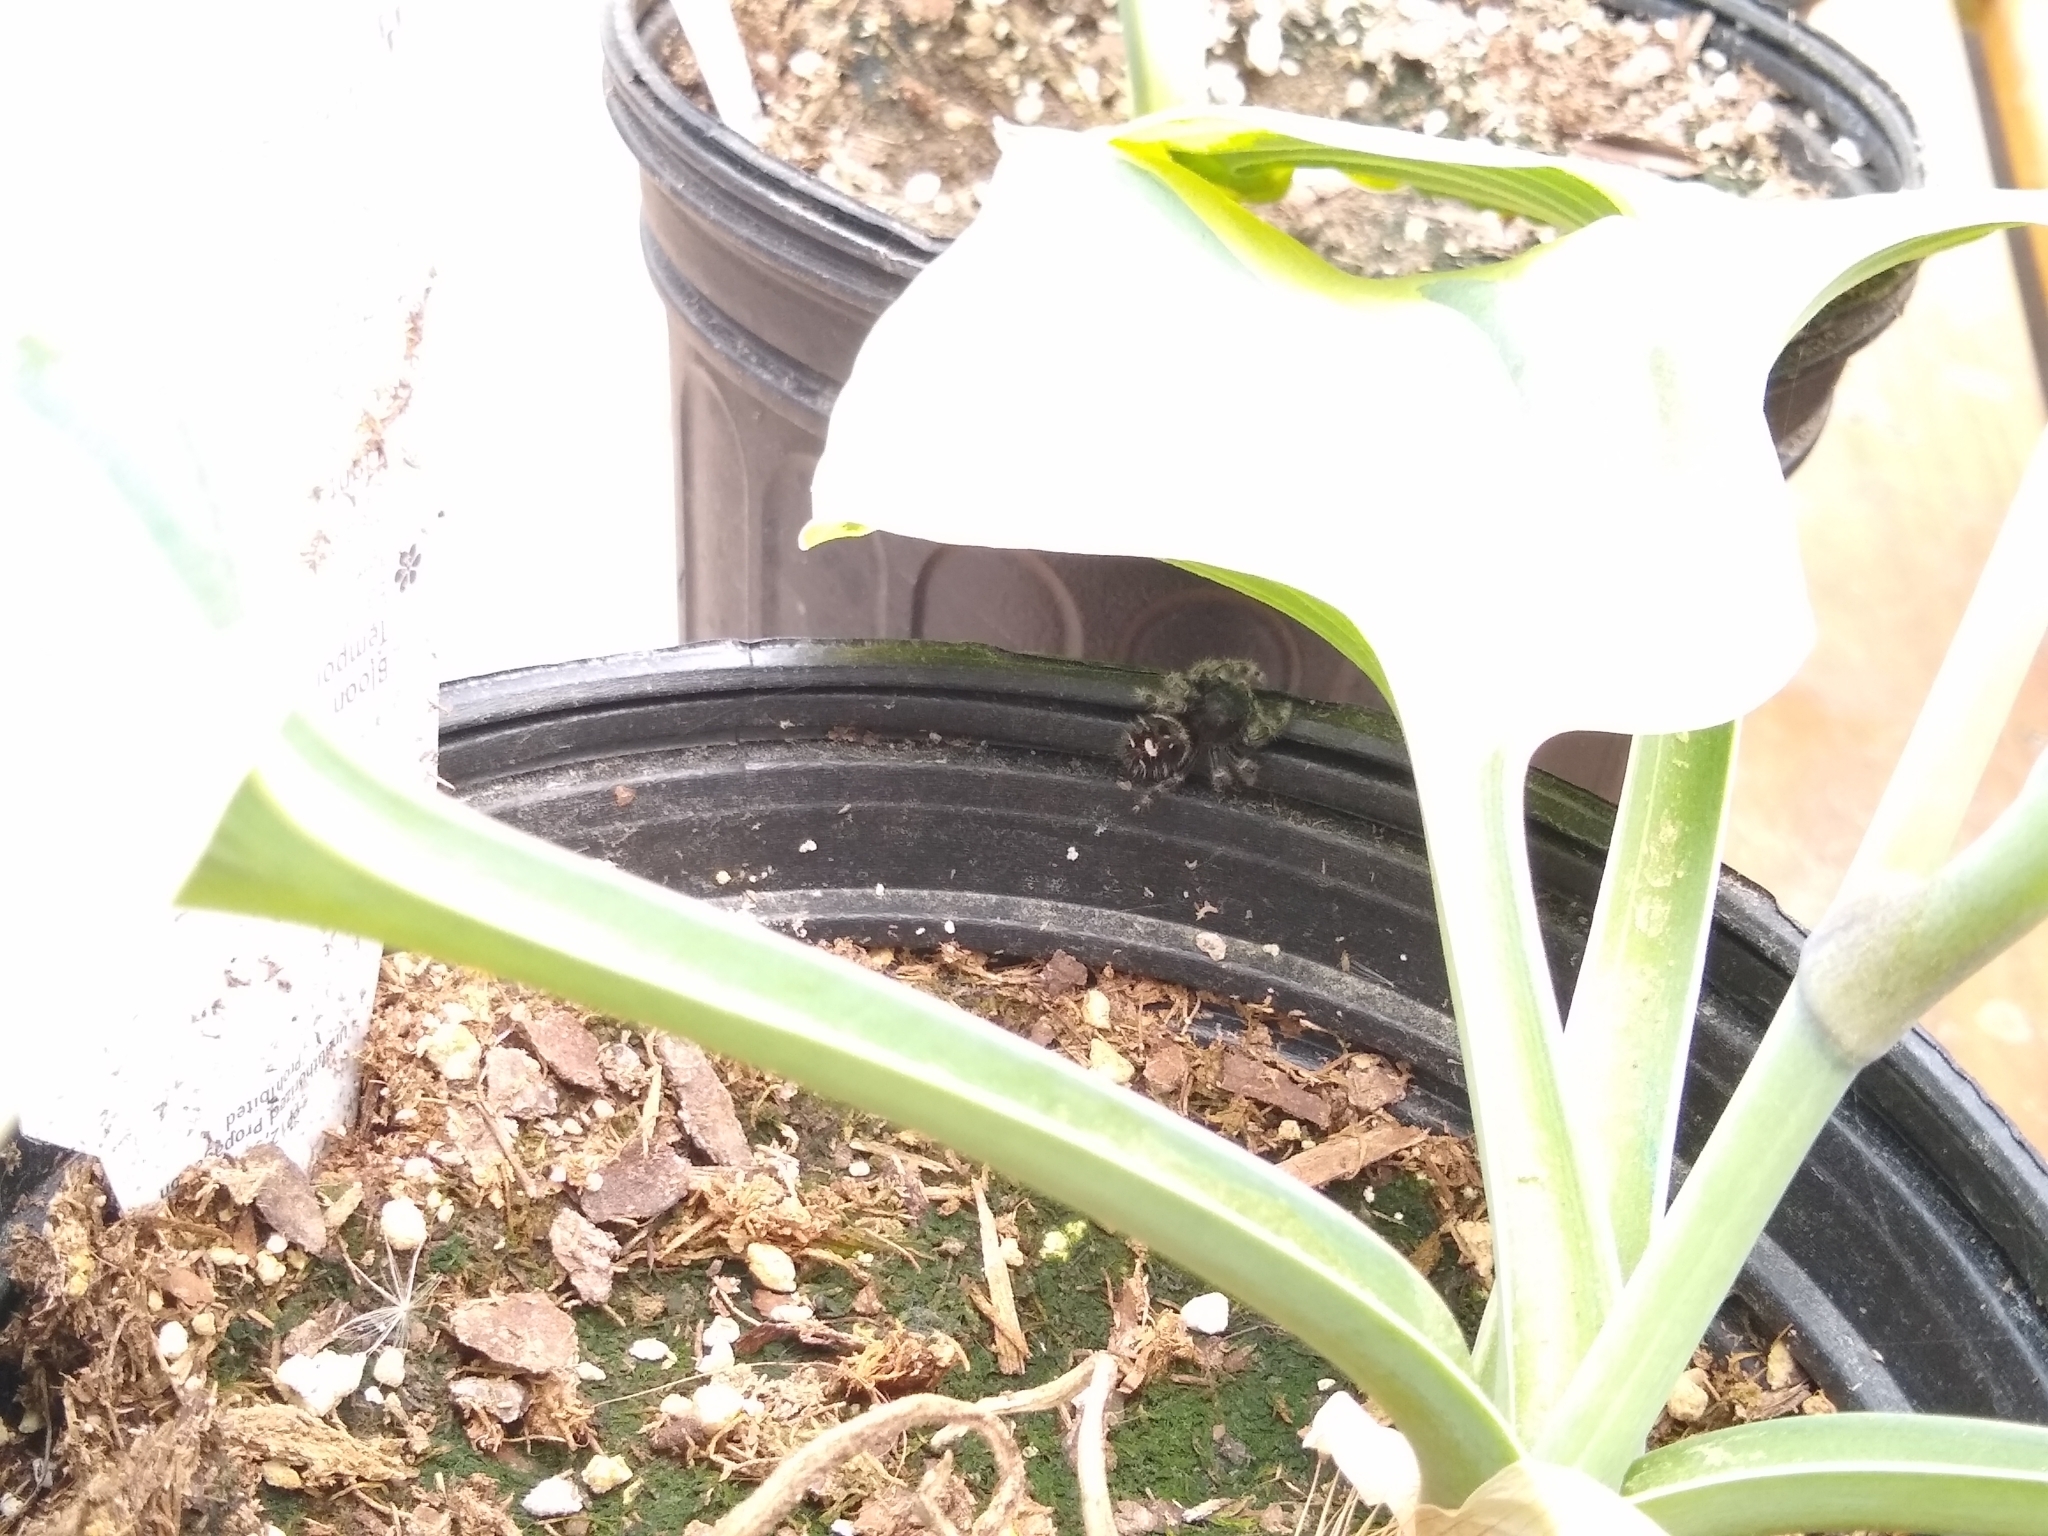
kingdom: Animalia
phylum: Arthropoda
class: Arachnida
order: Araneae
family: Salticidae
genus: Phidippus
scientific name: Phidippus audax
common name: Bold jumper
